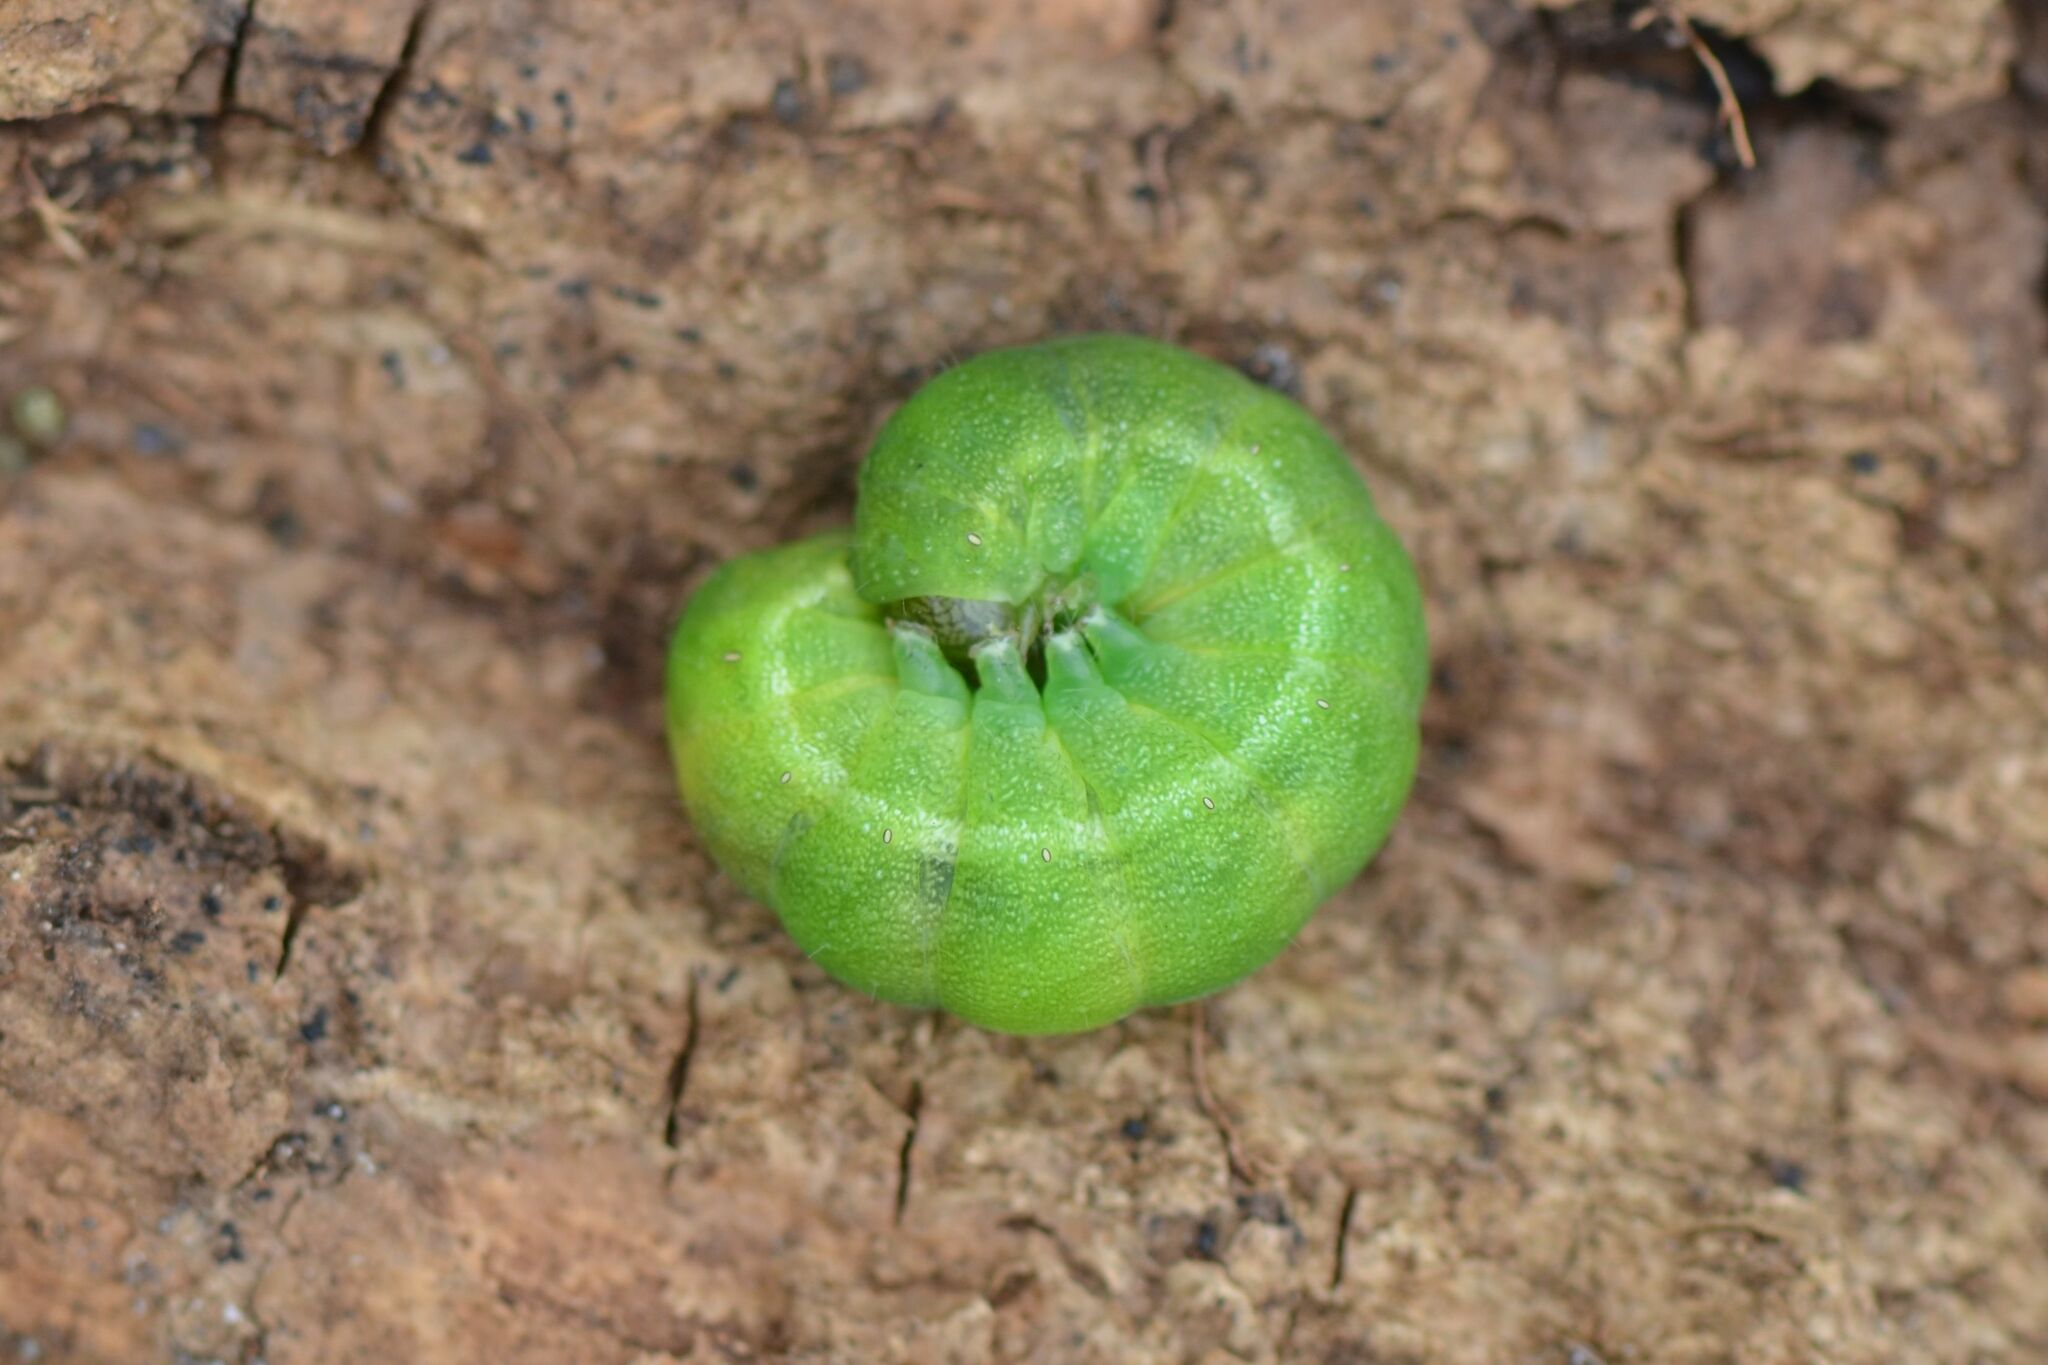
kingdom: Animalia
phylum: Arthropoda
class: Insecta
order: Lepidoptera
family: Noctuidae
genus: Phlogophora
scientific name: Phlogophora meticulosa
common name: Angle shades
